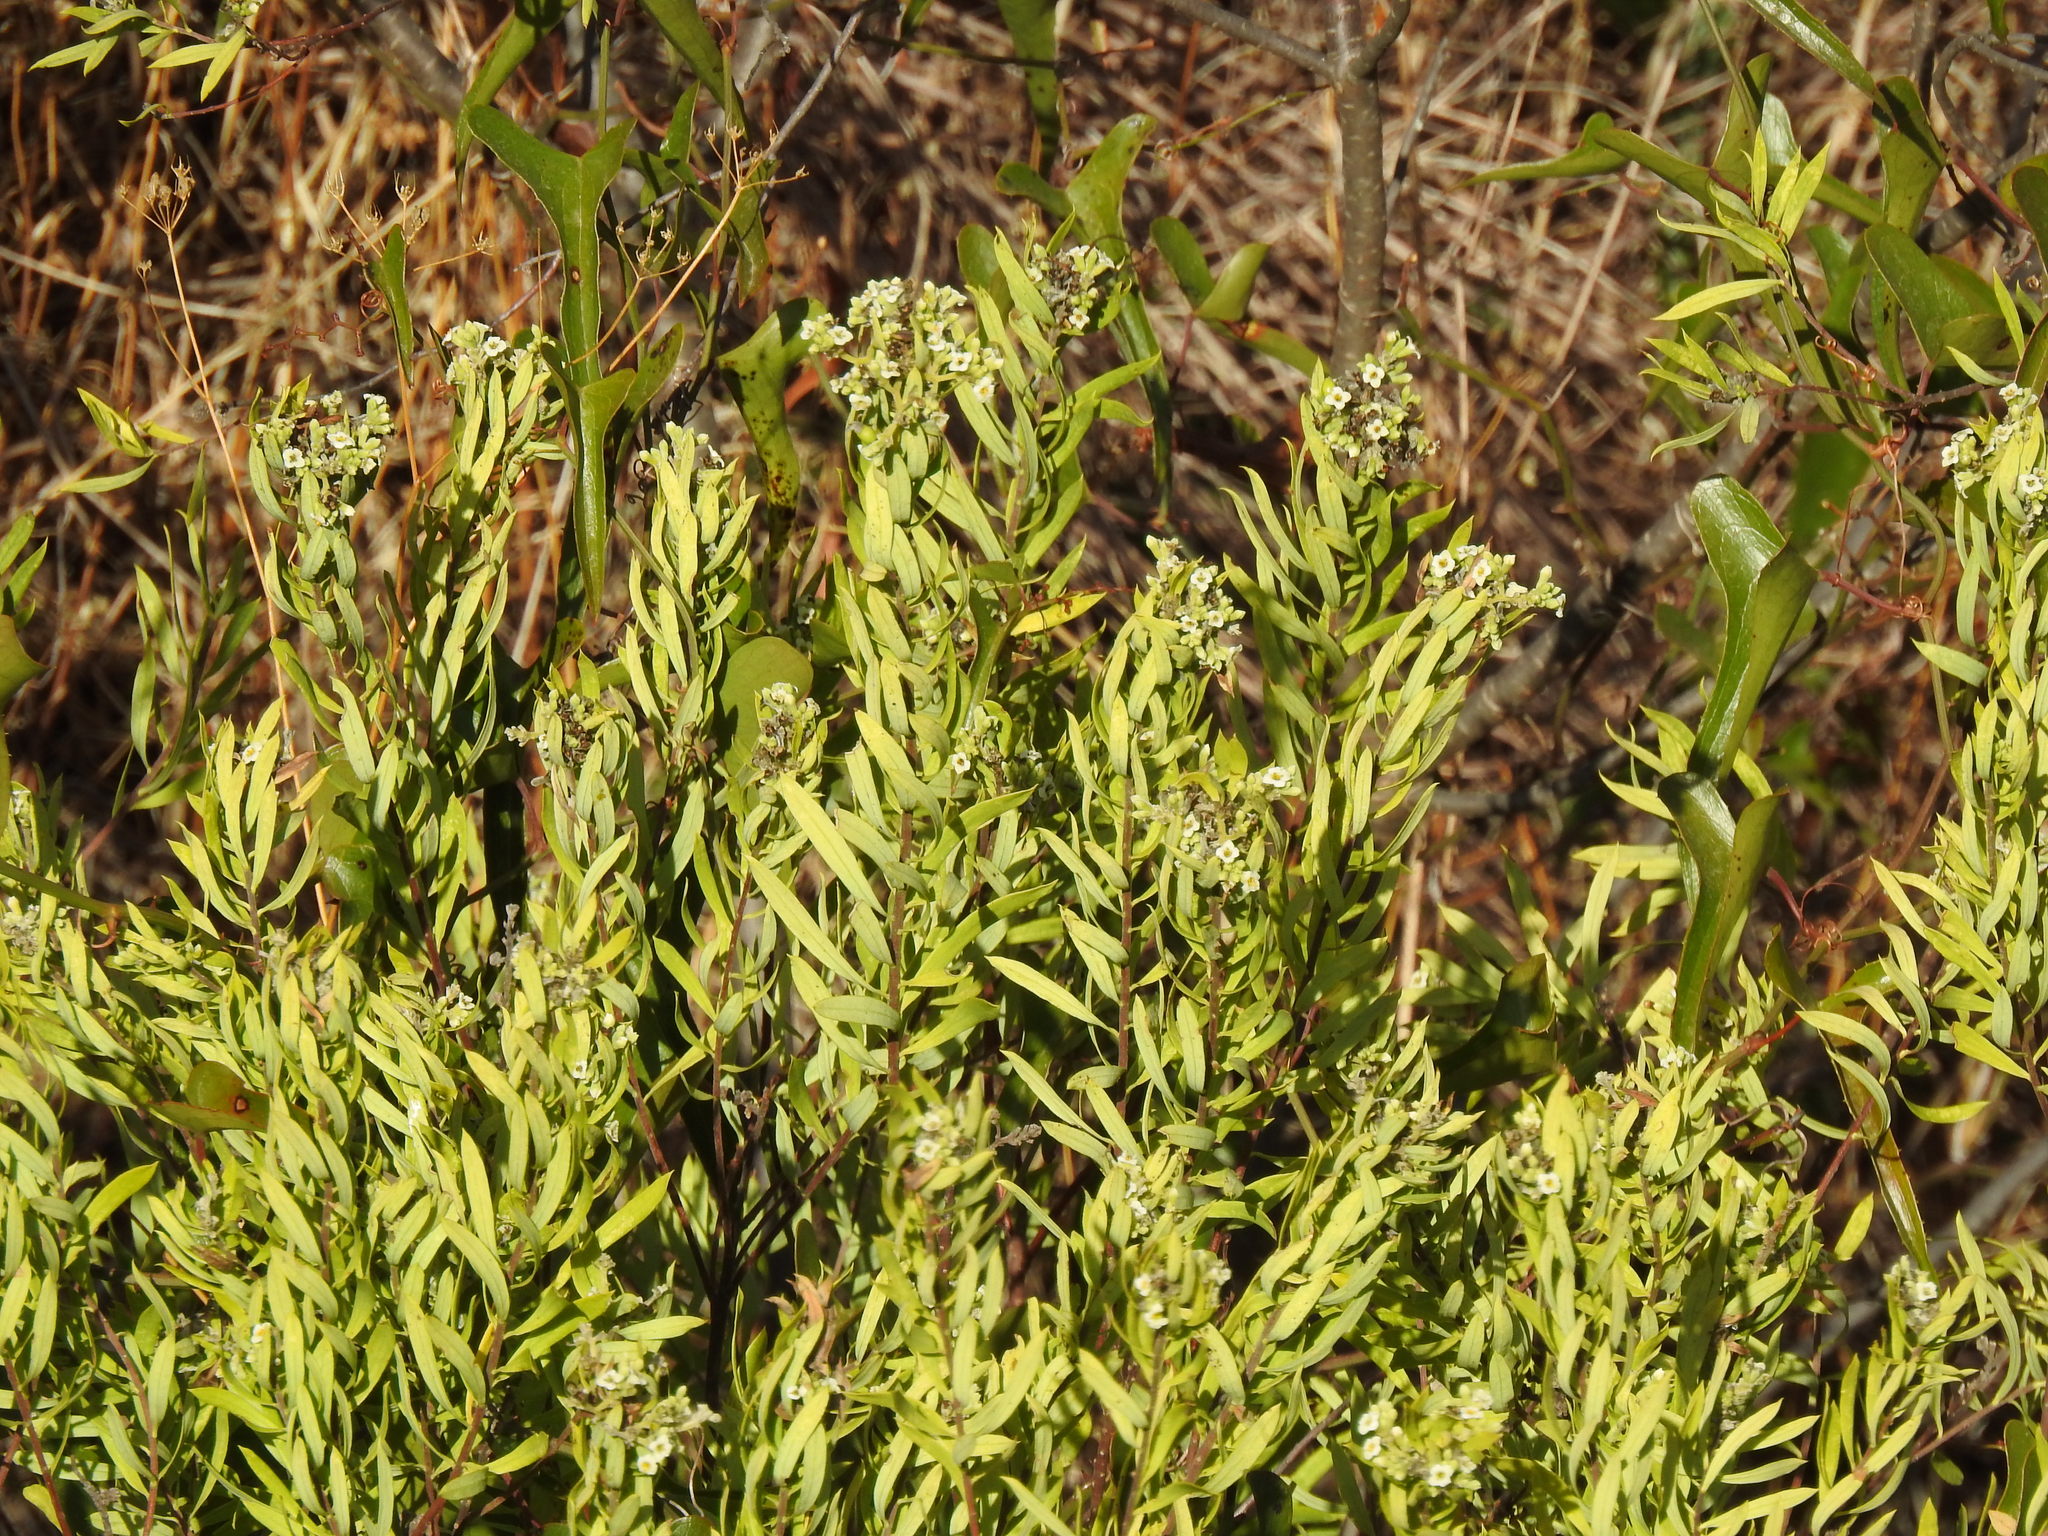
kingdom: Plantae
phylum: Tracheophyta
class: Magnoliopsida
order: Malvales
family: Thymelaeaceae
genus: Daphne
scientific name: Daphne gnidium
